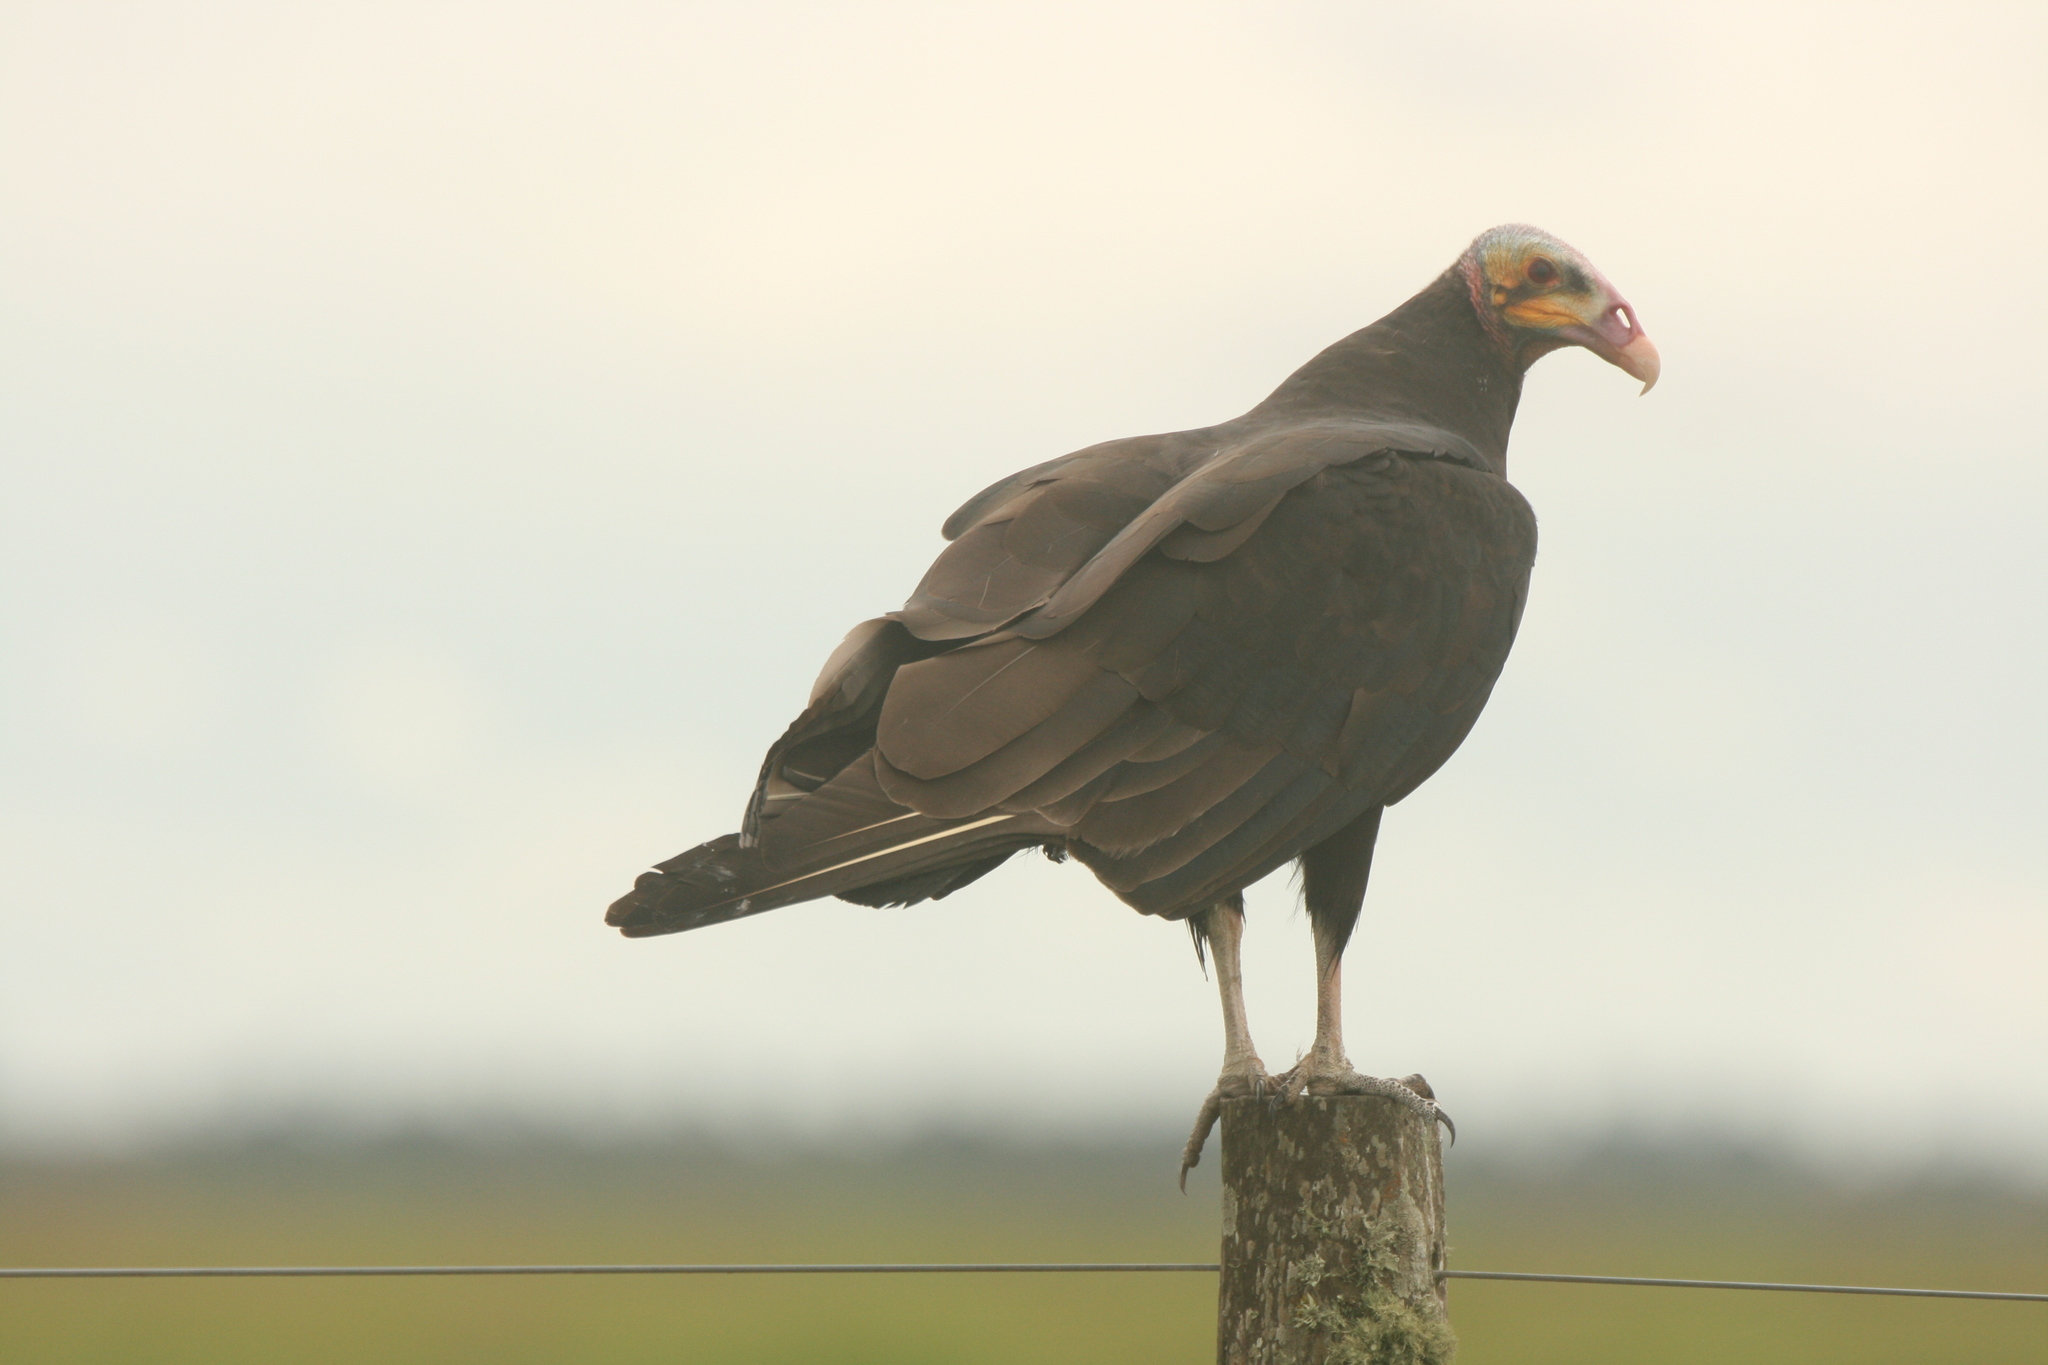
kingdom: Animalia
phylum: Chordata
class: Aves
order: Accipitriformes
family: Cathartidae
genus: Cathartes
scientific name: Cathartes burrovianus
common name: Lesser yellow-headed vulture
